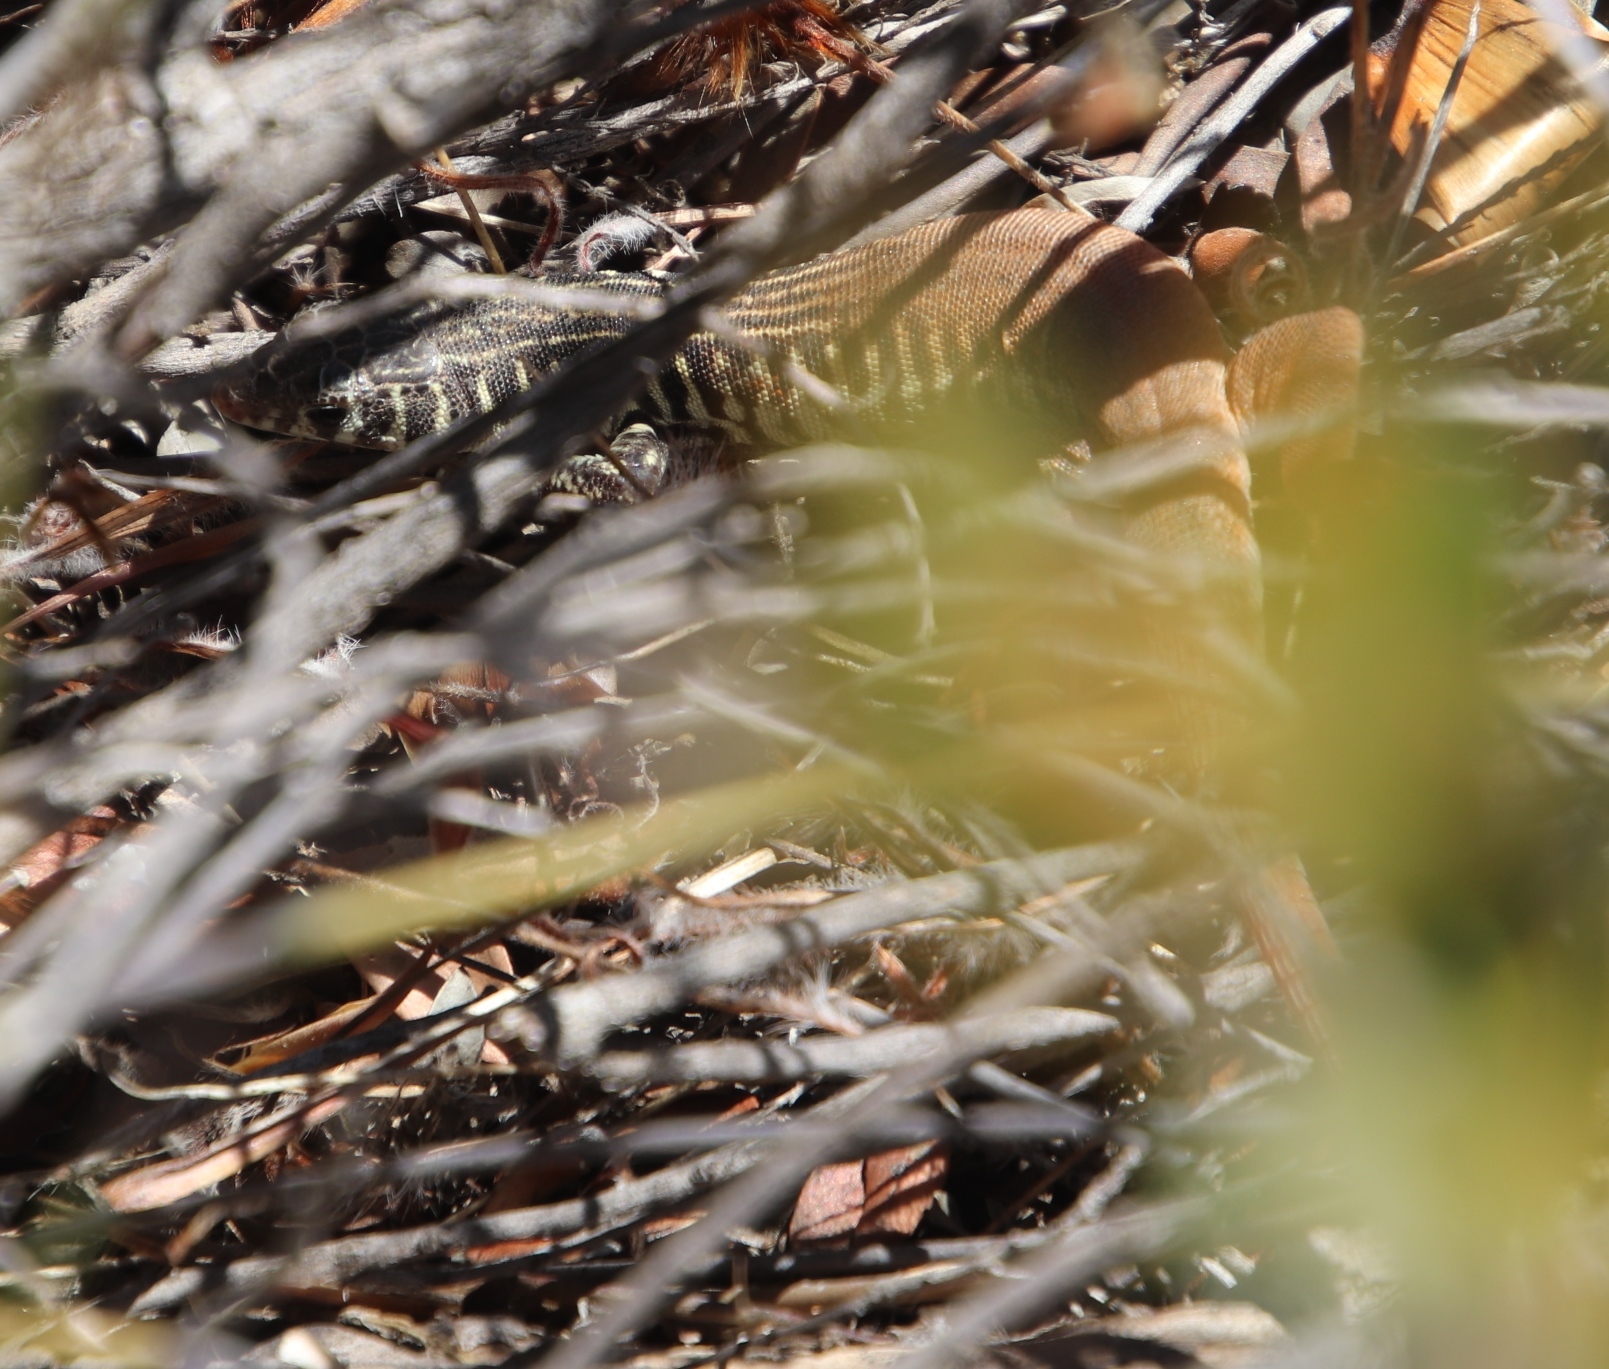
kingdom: Animalia
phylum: Chordata
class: Squamata
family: Lacertidae
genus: Nucras
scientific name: Nucras tessellata
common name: Western sandveld lizard
